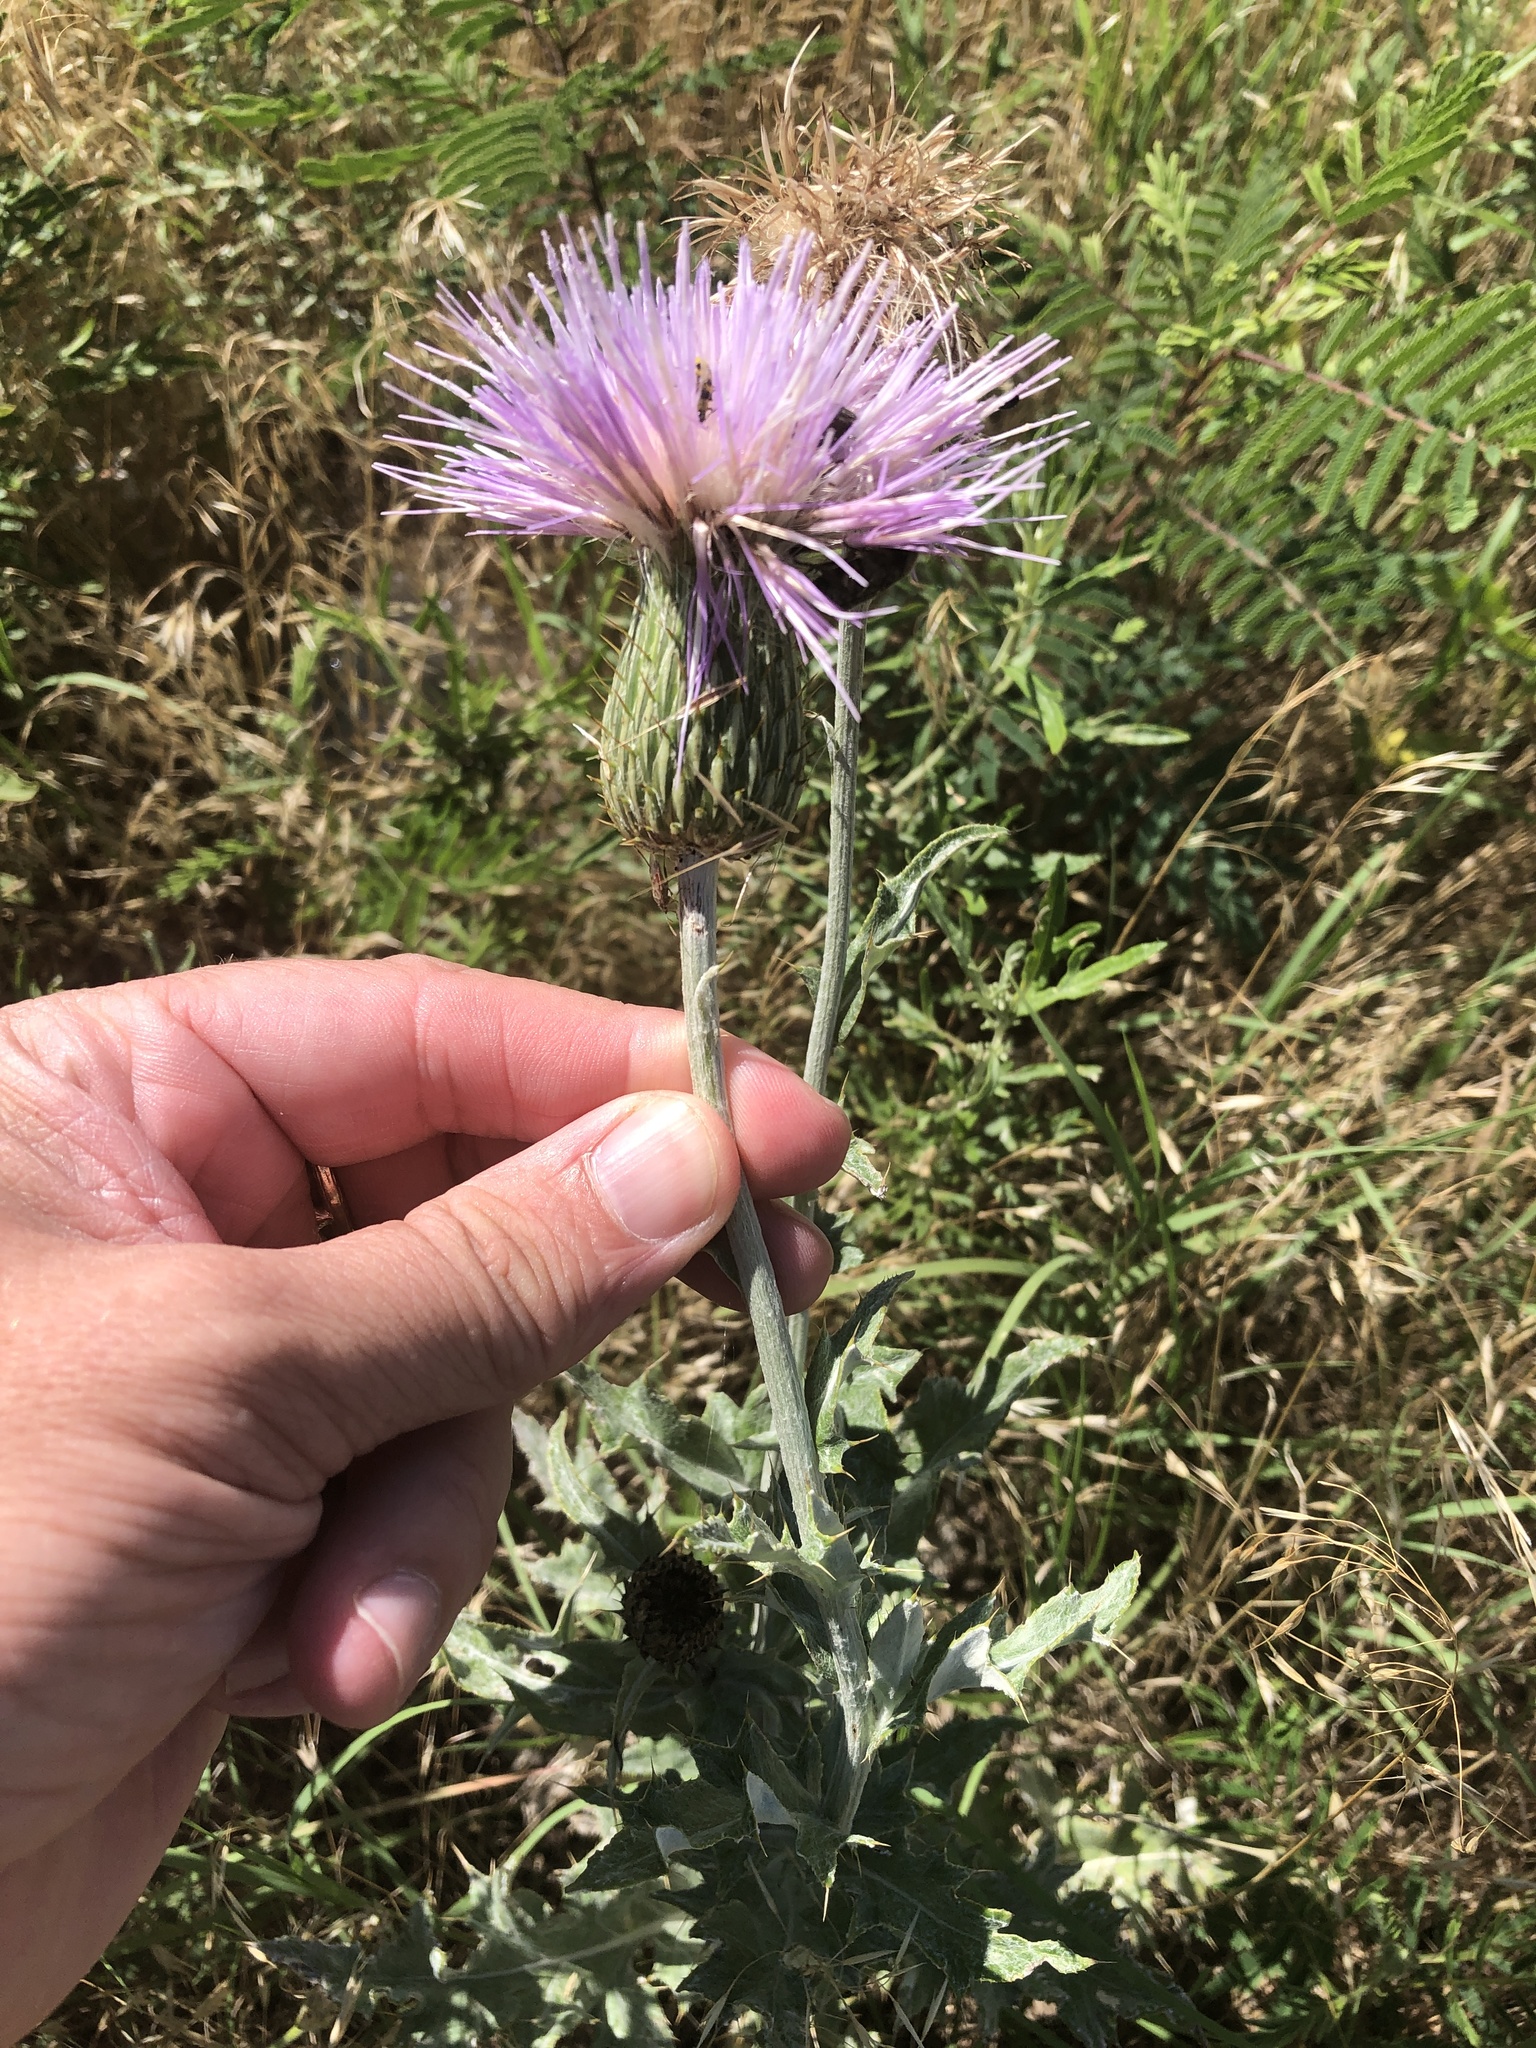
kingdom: Plantae
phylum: Tracheophyta
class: Magnoliopsida
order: Asterales
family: Asteraceae
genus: Cirsium
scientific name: Cirsium undulatum
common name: Pasture thistle
